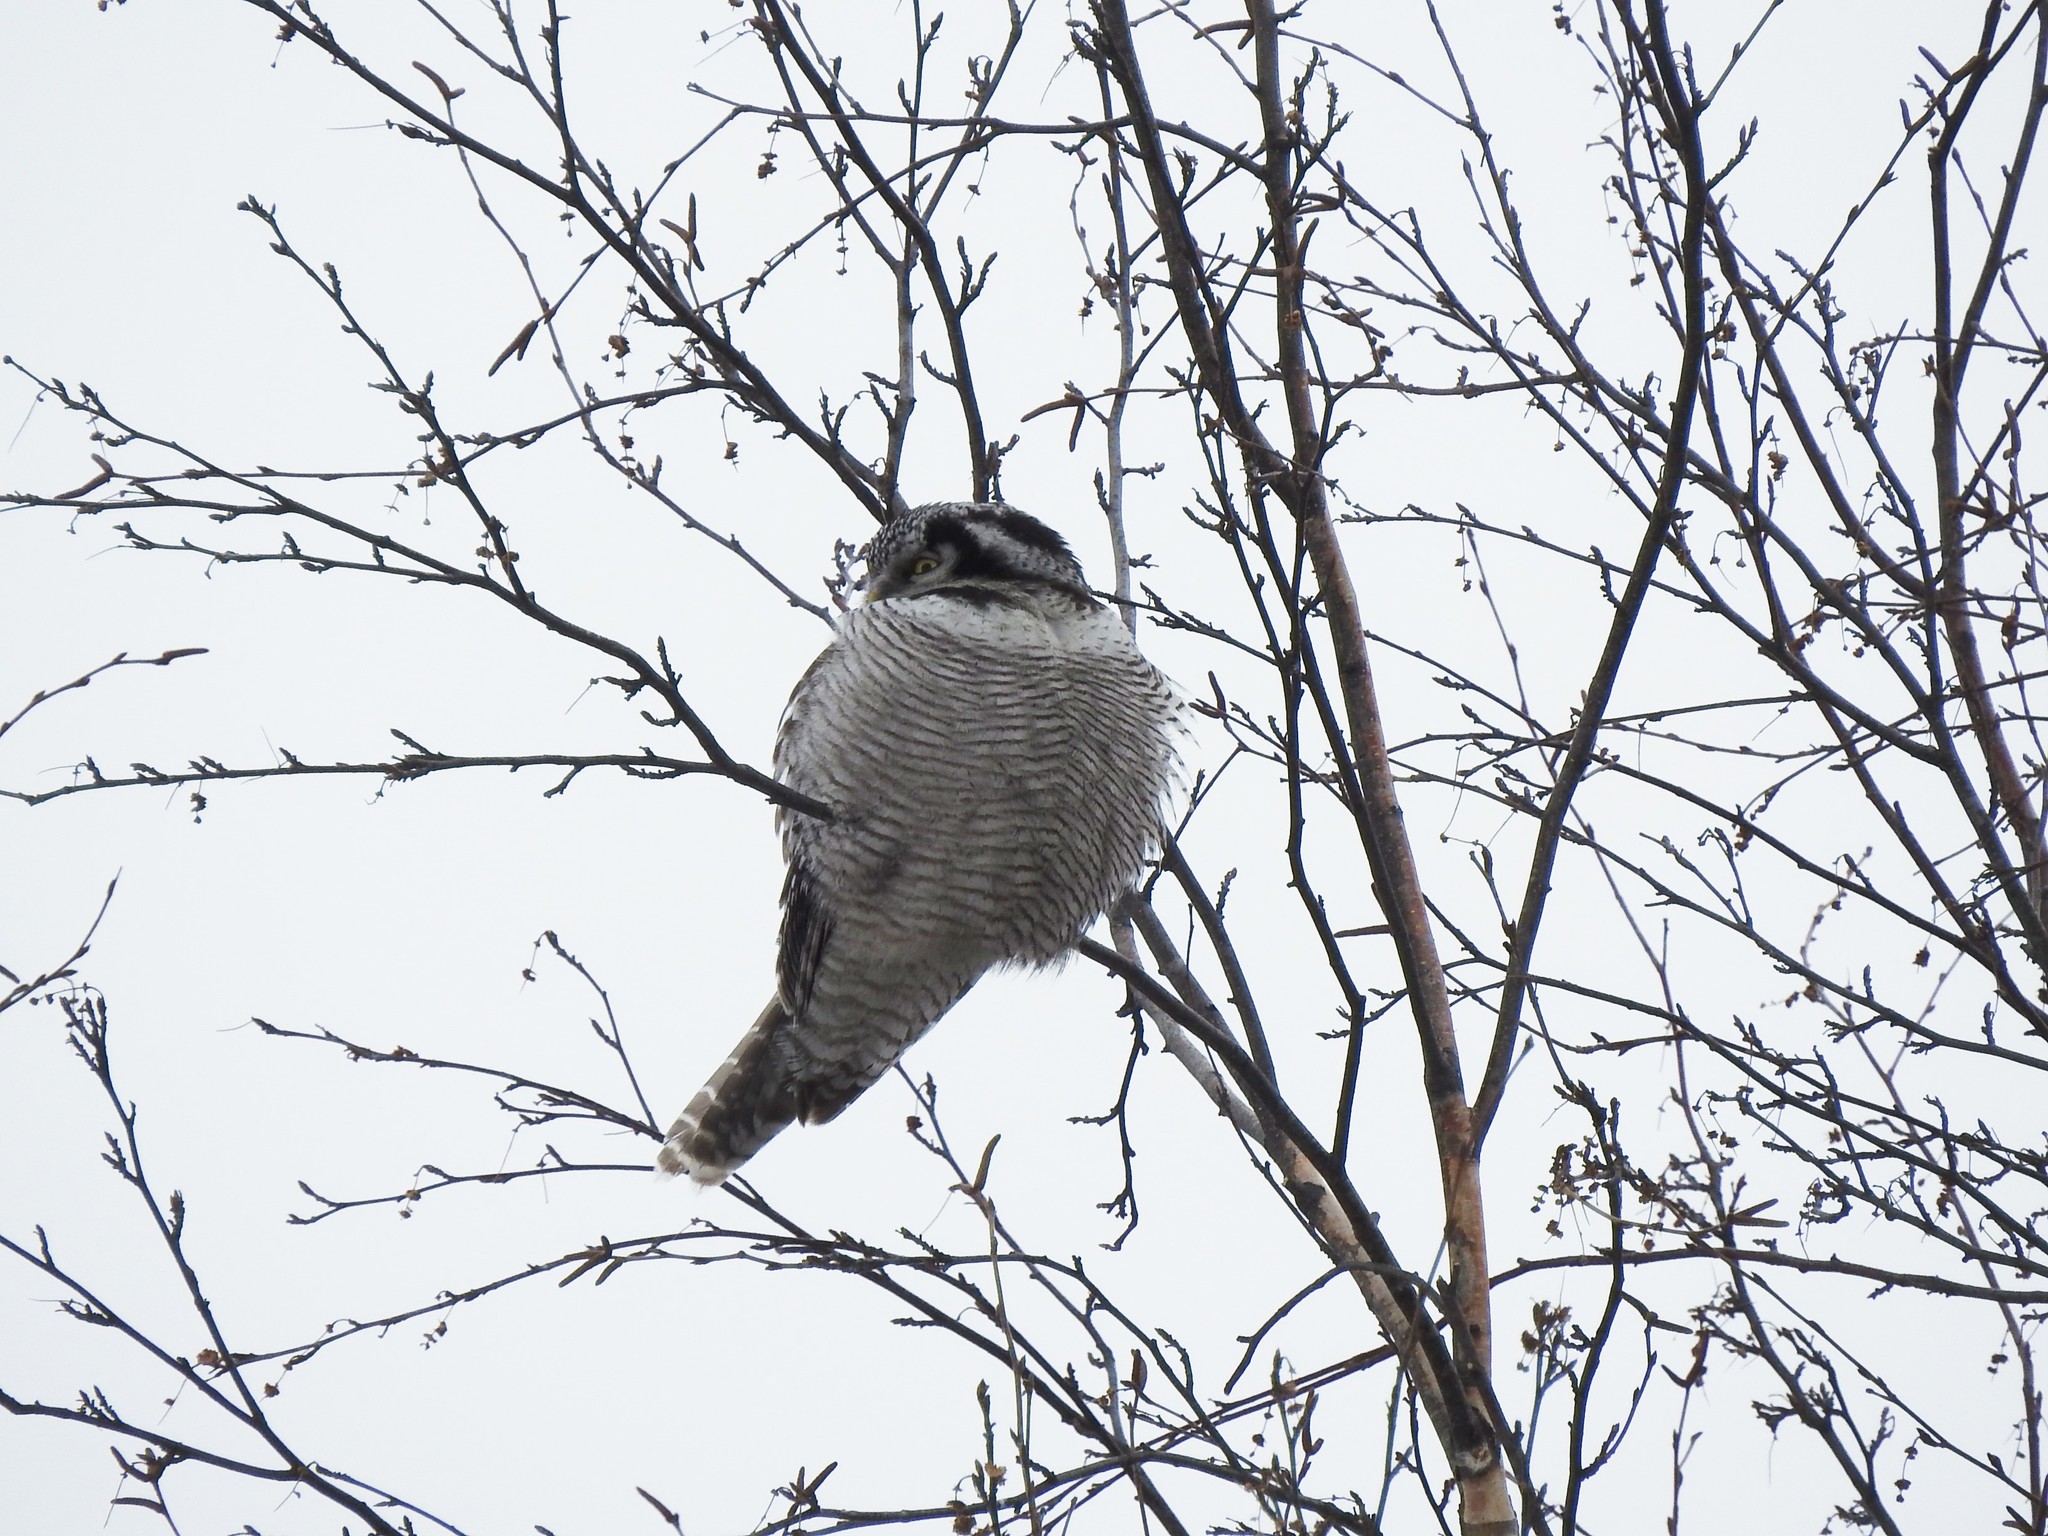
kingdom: Animalia
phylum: Chordata
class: Aves
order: Strigiformes
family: Strigidae
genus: Surnia
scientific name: Surnia ulula
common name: Northern hawk-owl
